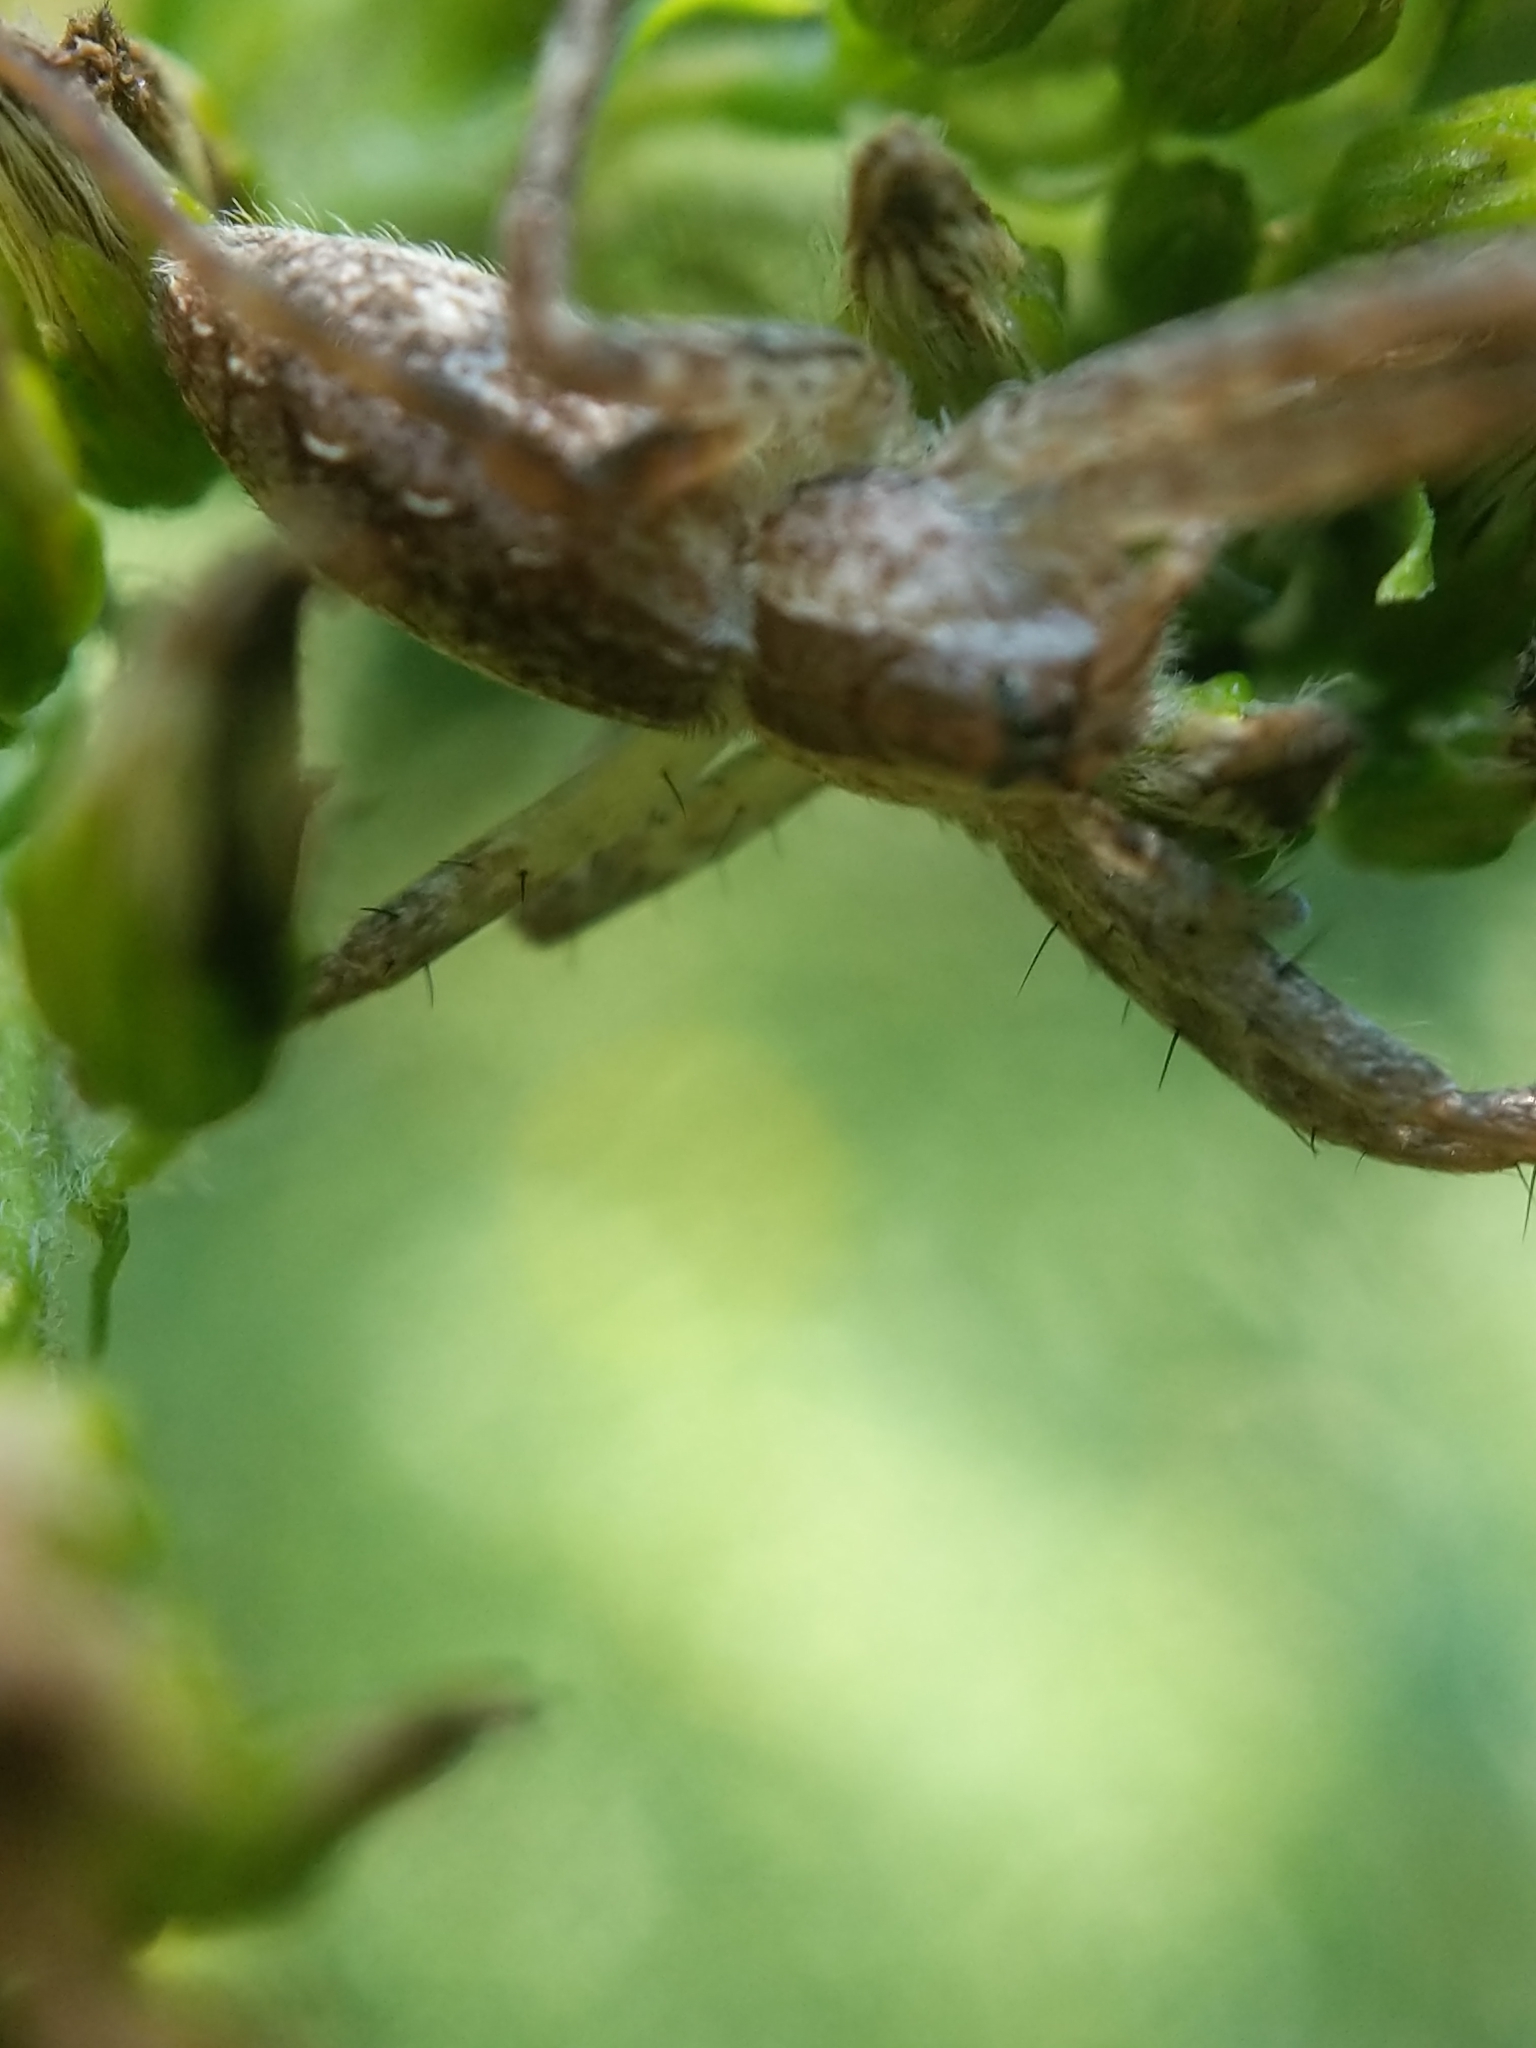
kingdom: Animalia
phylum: Arthropoda
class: Arachnida
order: Araneae
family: Pisauridae
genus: Pisaurina
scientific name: Pisaurina mira
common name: American nursery web spider
